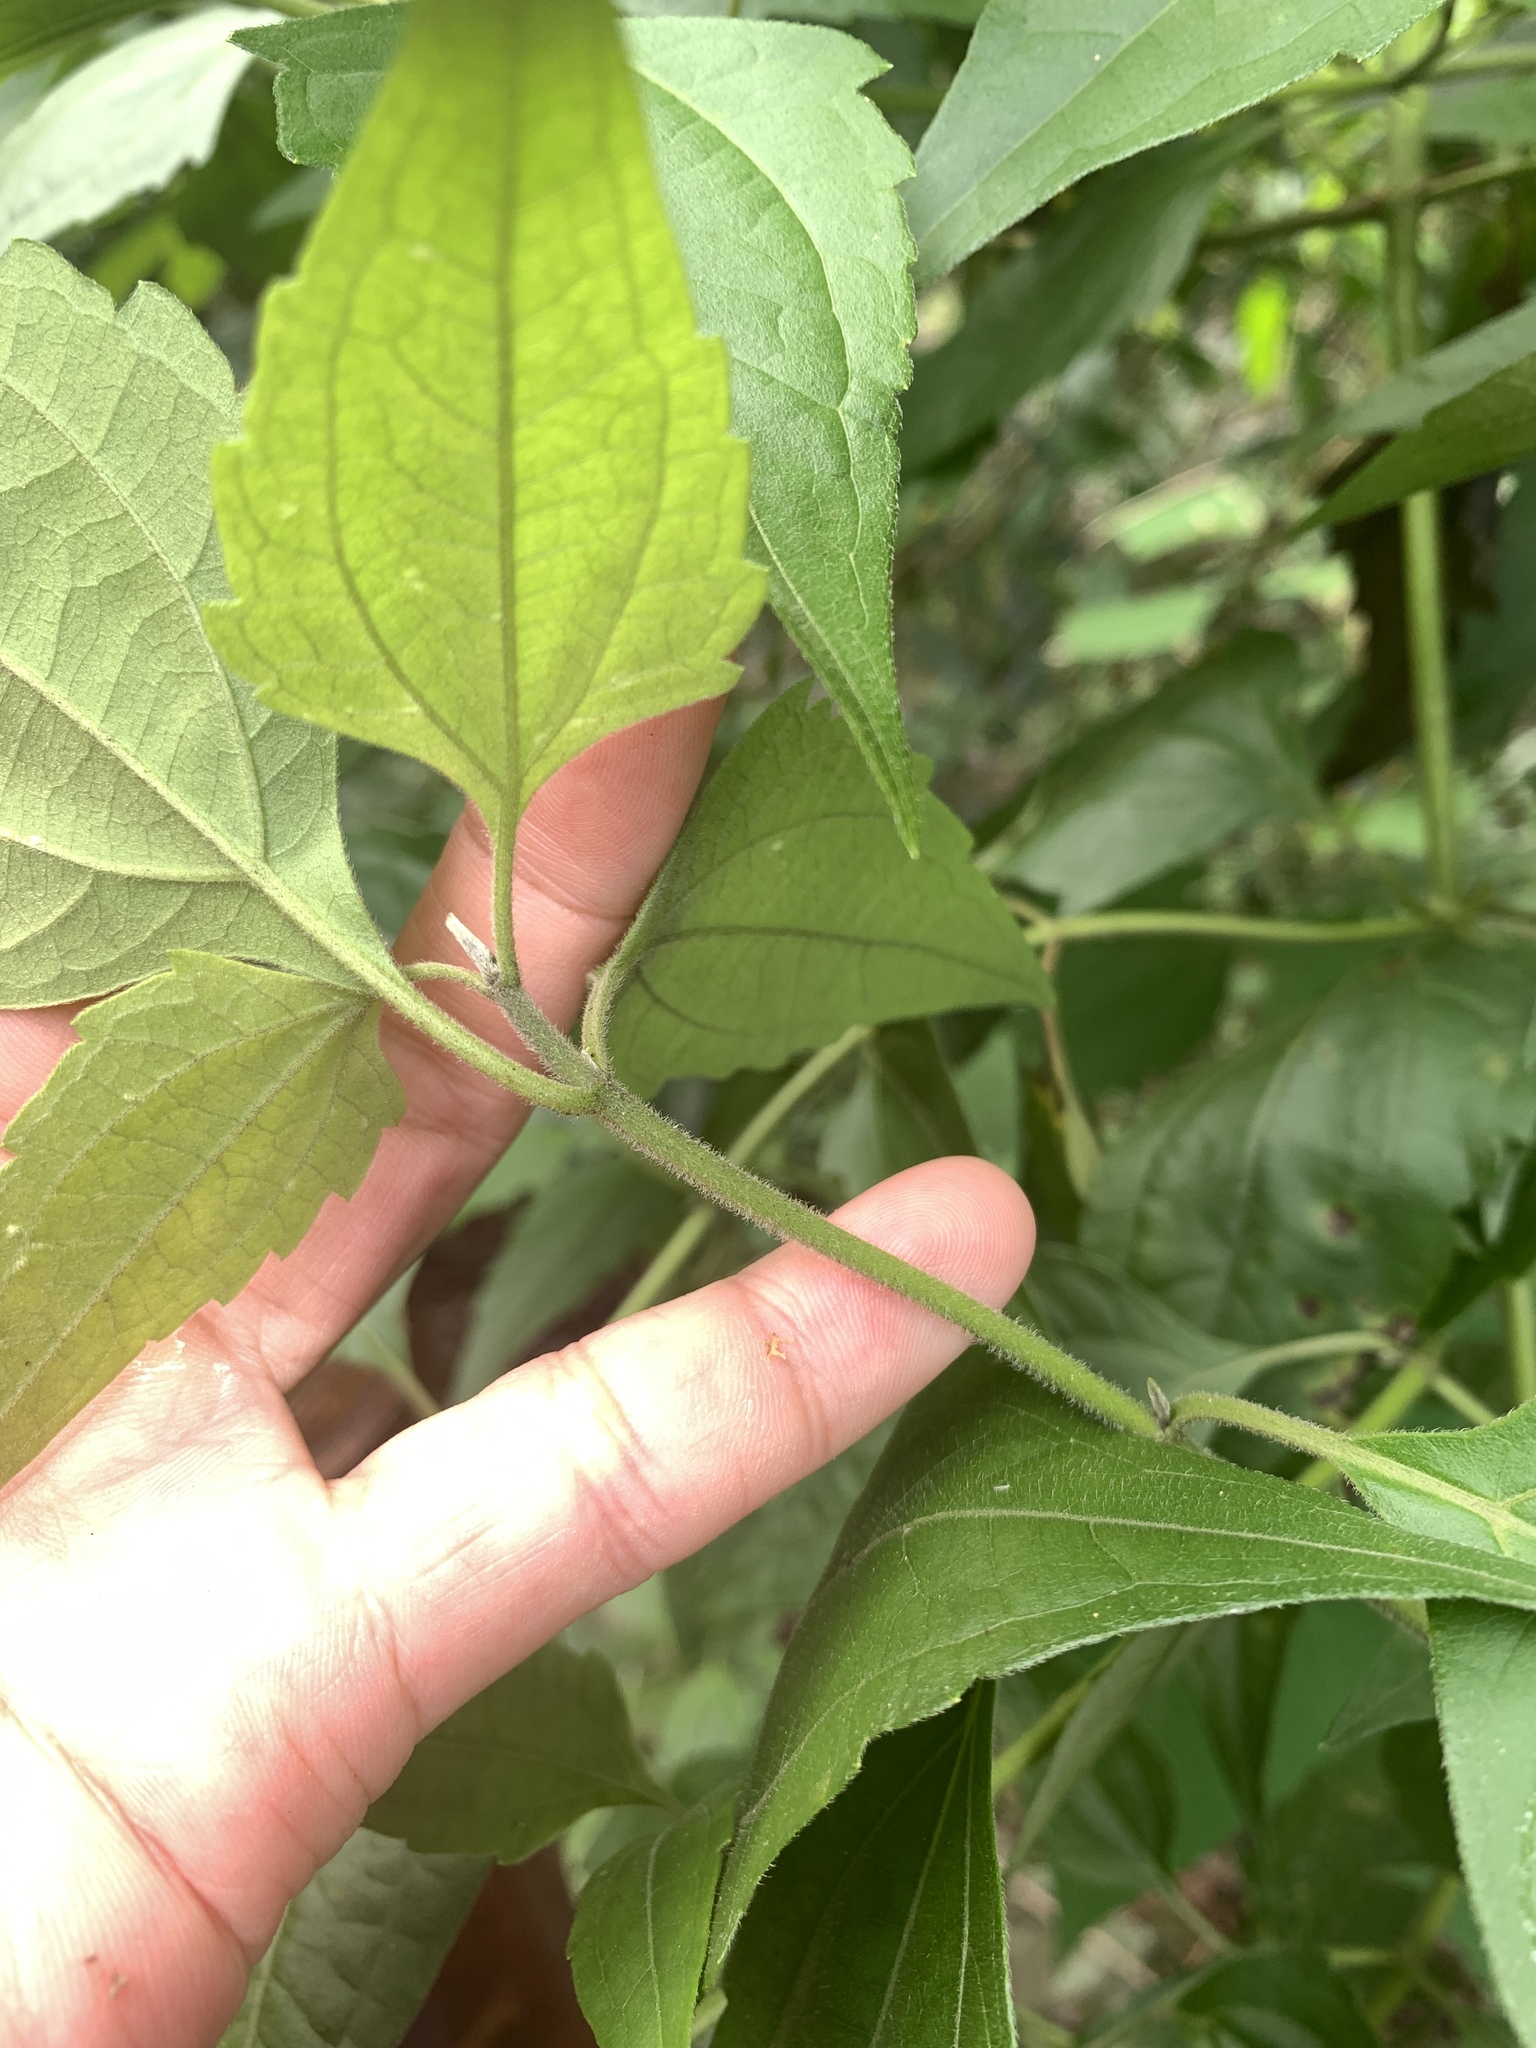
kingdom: Plantae
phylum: Tracheophyta
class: Magnoliopsida
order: Asterales
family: Asteraceae
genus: Chromolaena
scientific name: Chromolaena odorata
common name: Siamweed
